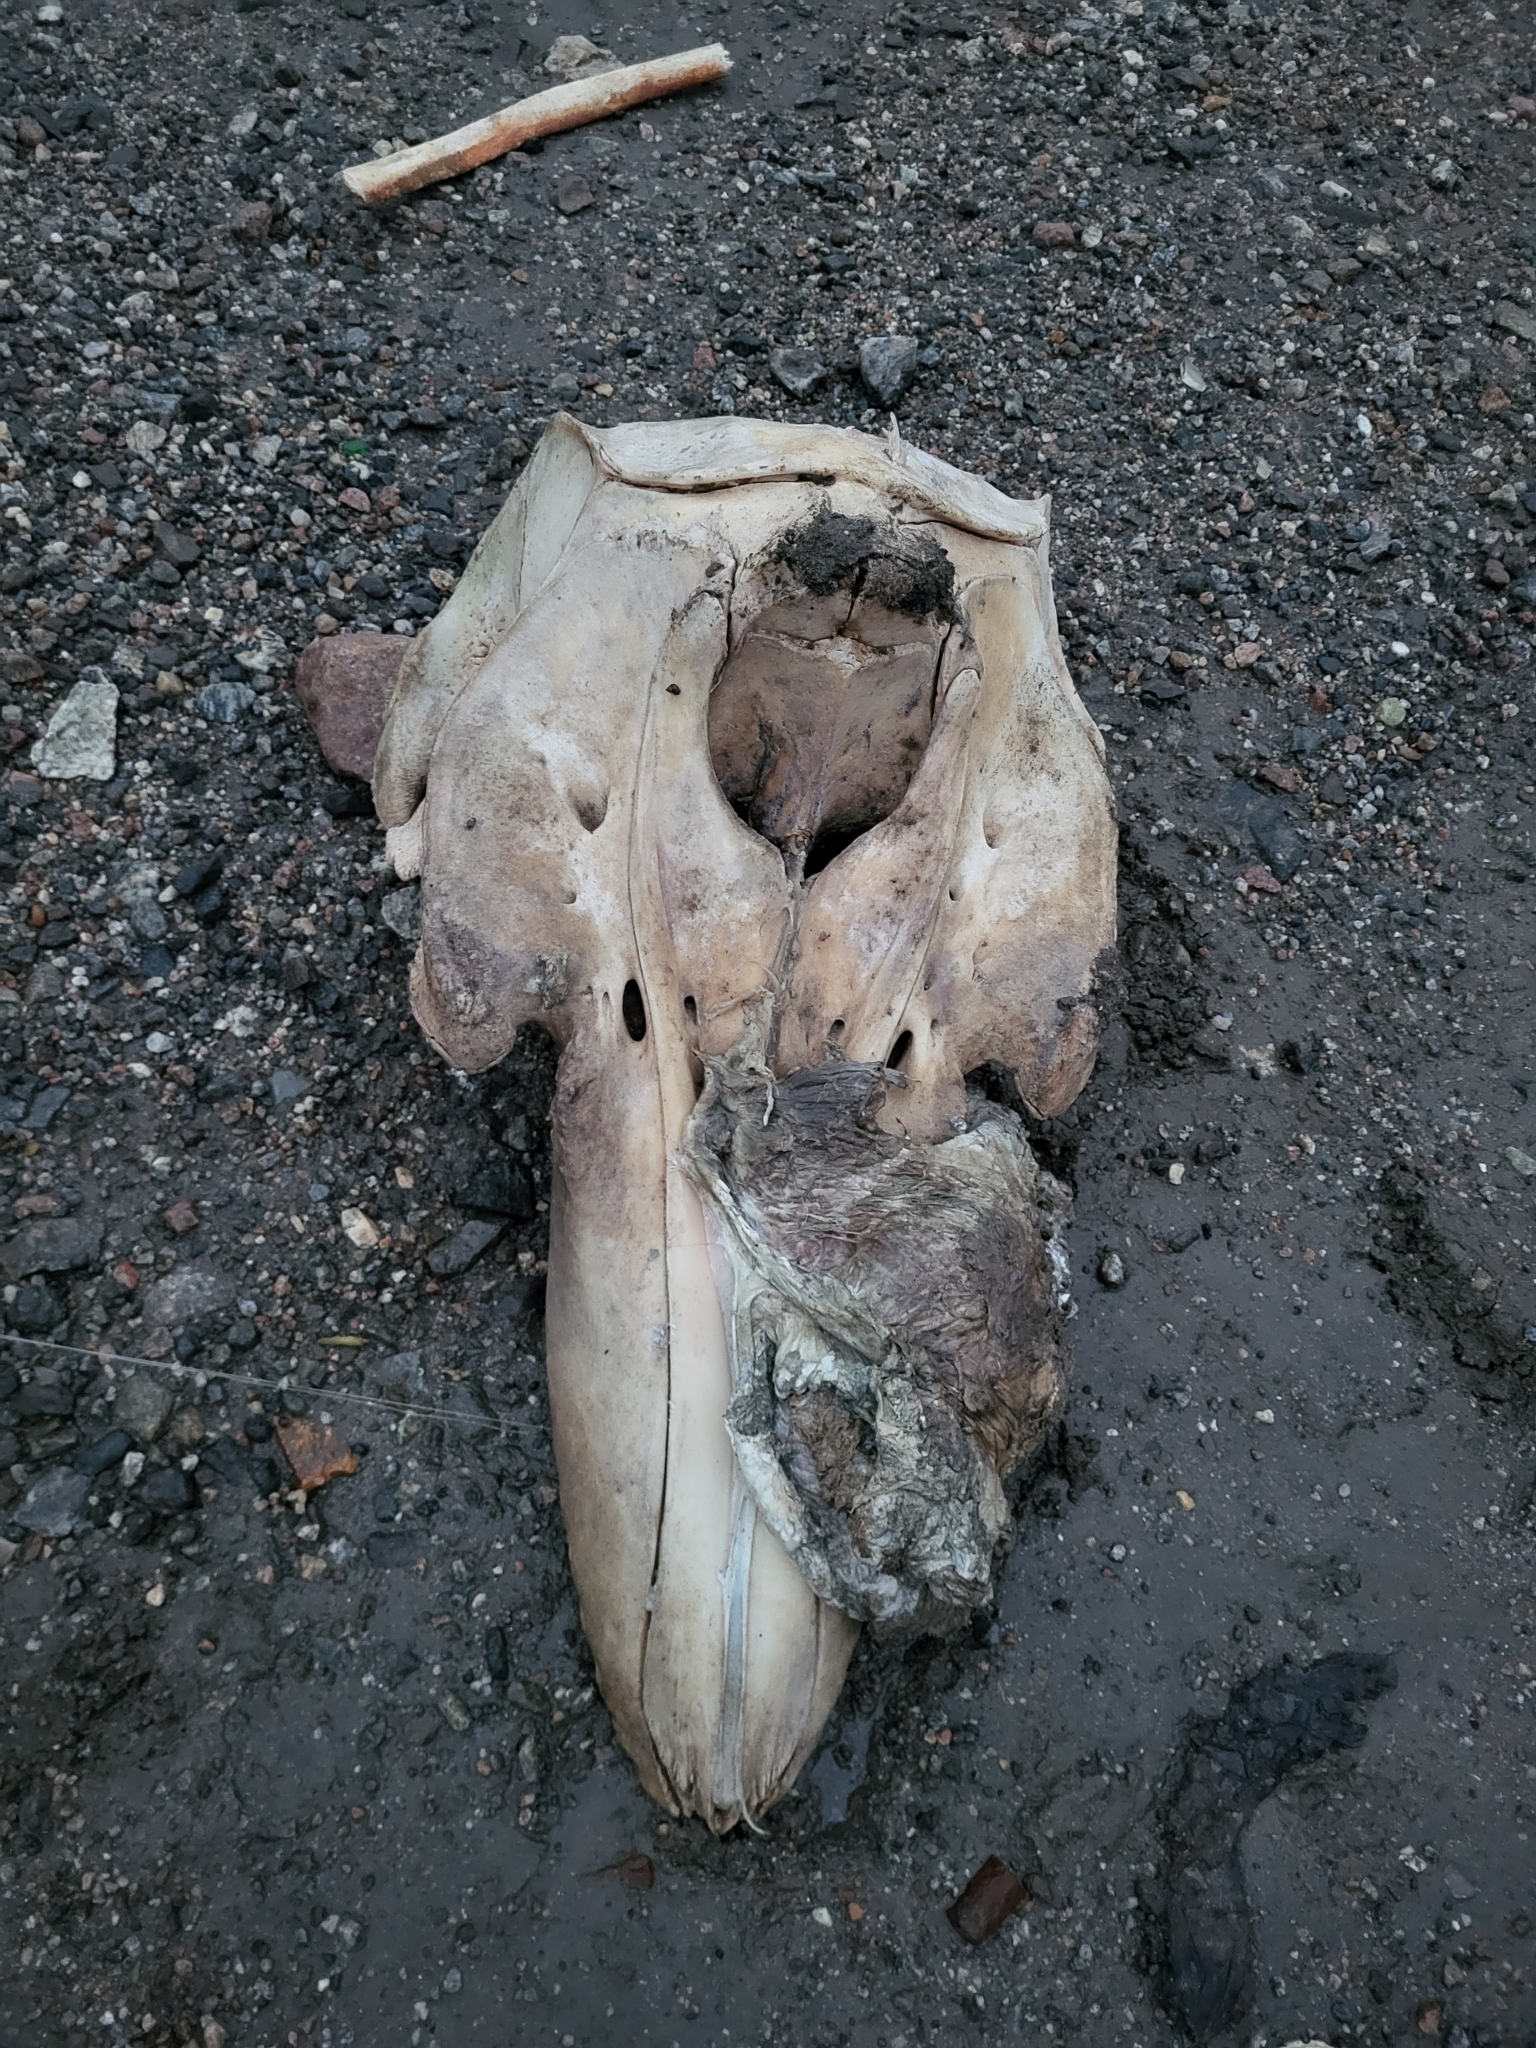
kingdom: Animalia
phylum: Chordata
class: Mammalia
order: Cetacea
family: Delphinidae
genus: Orcinus
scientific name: Orcinus orca
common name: Killer whale
